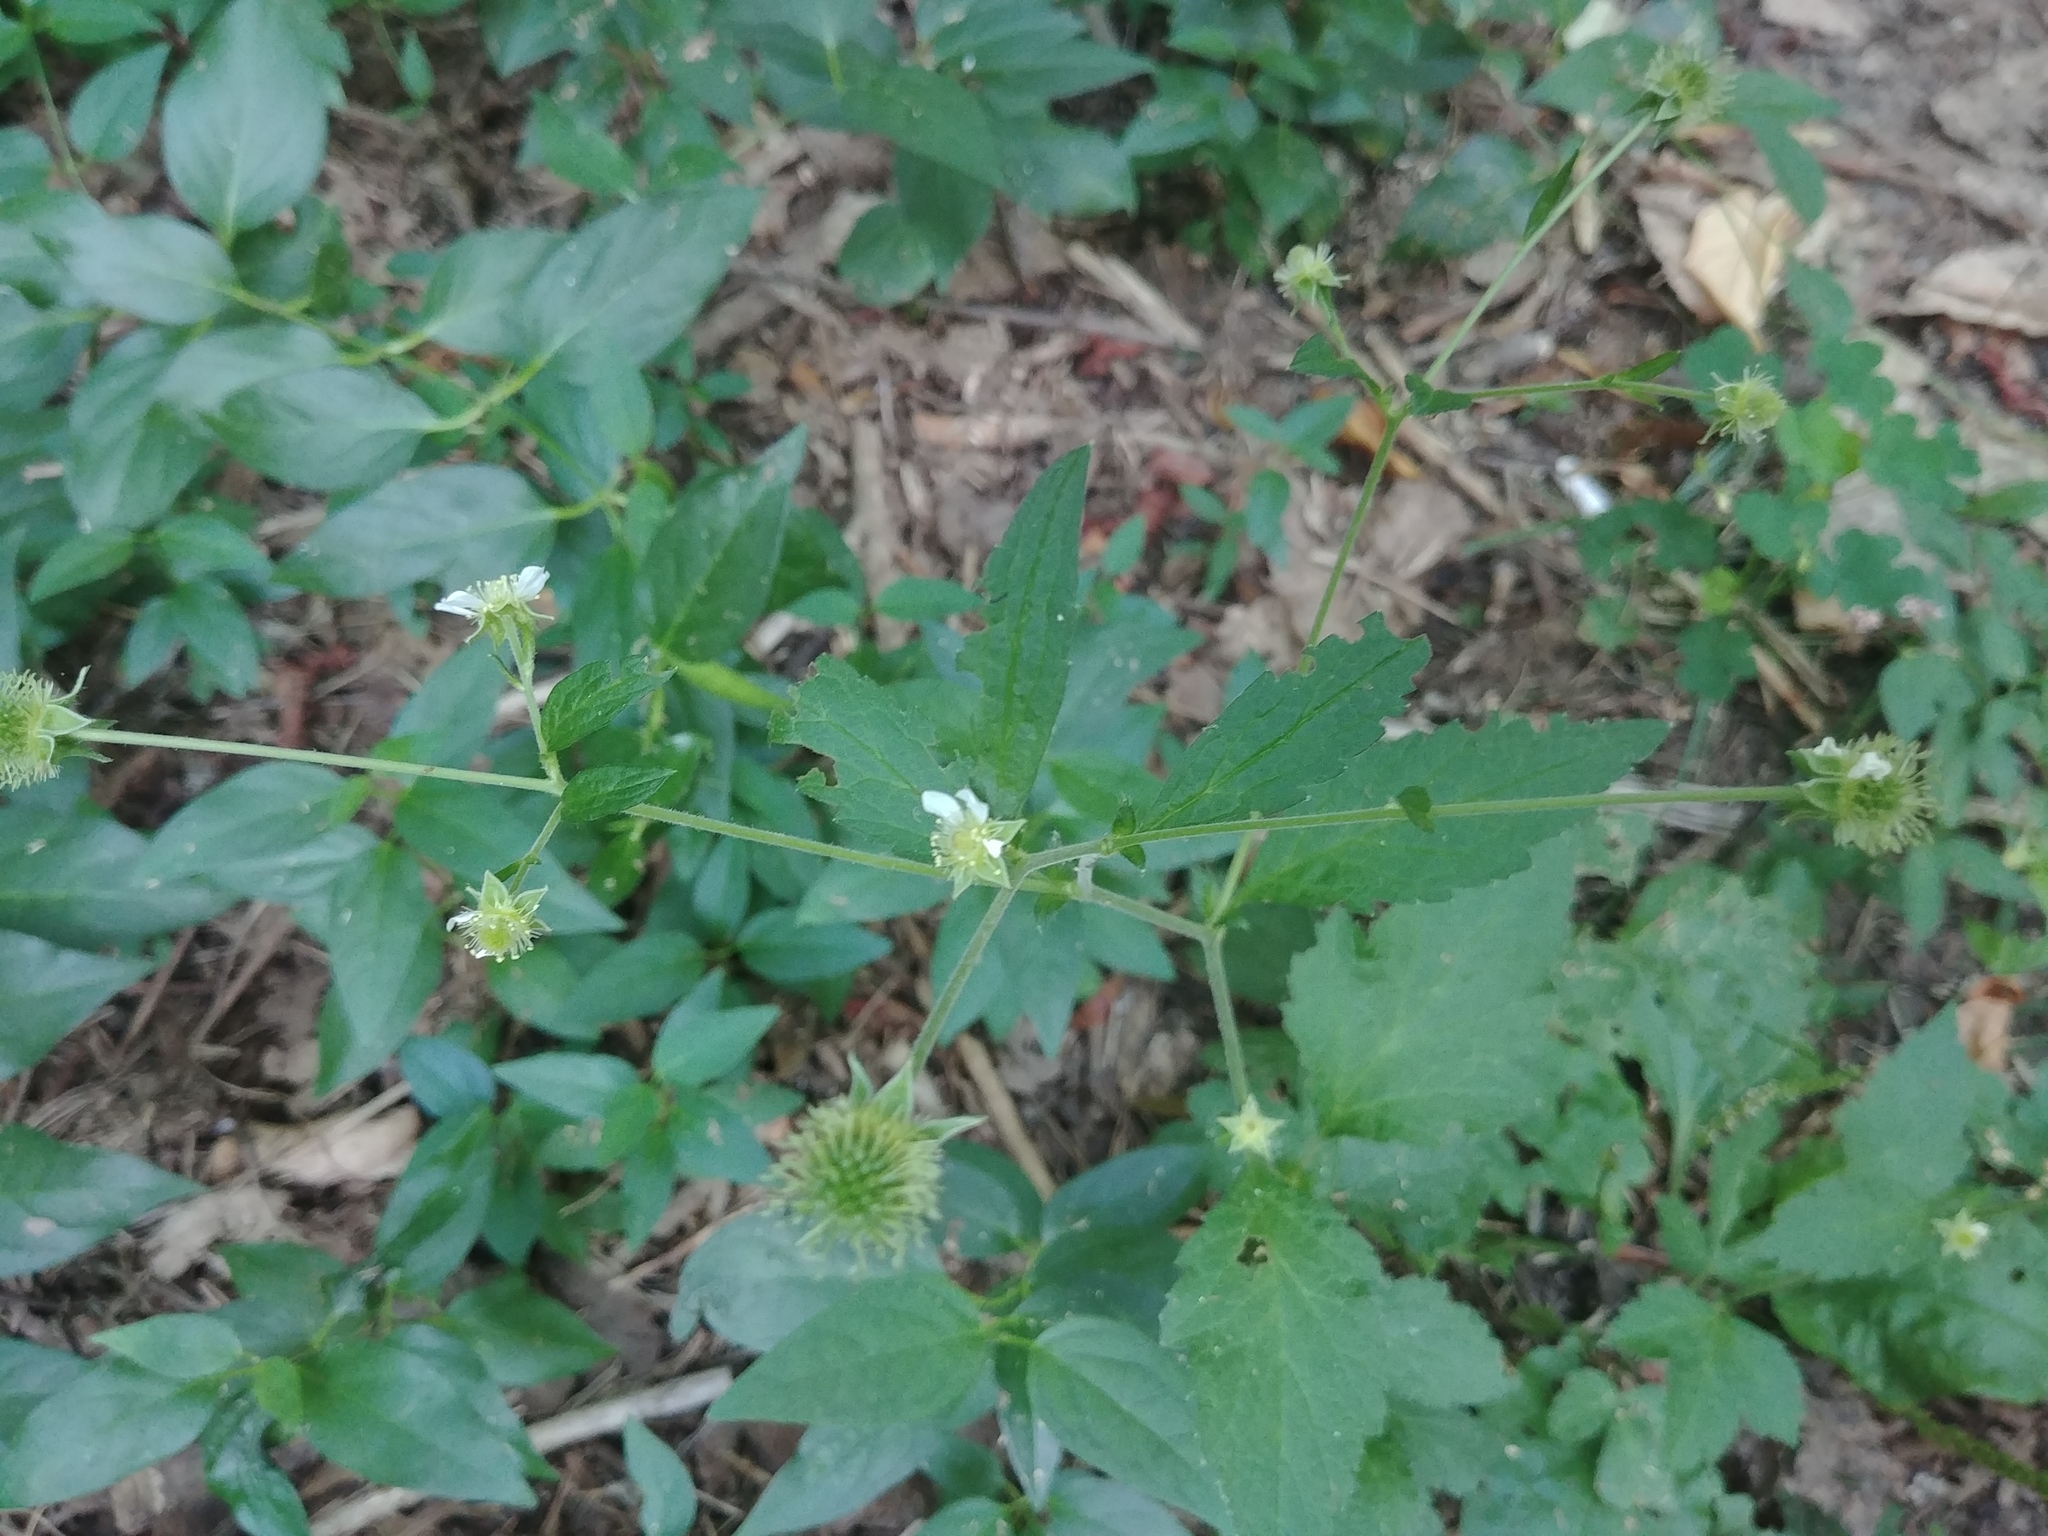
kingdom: Plantae
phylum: Tracheophyta
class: Magnoliopsida
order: Rosales
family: Rosaceae
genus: Geum
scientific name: Geum canadense
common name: White avens
